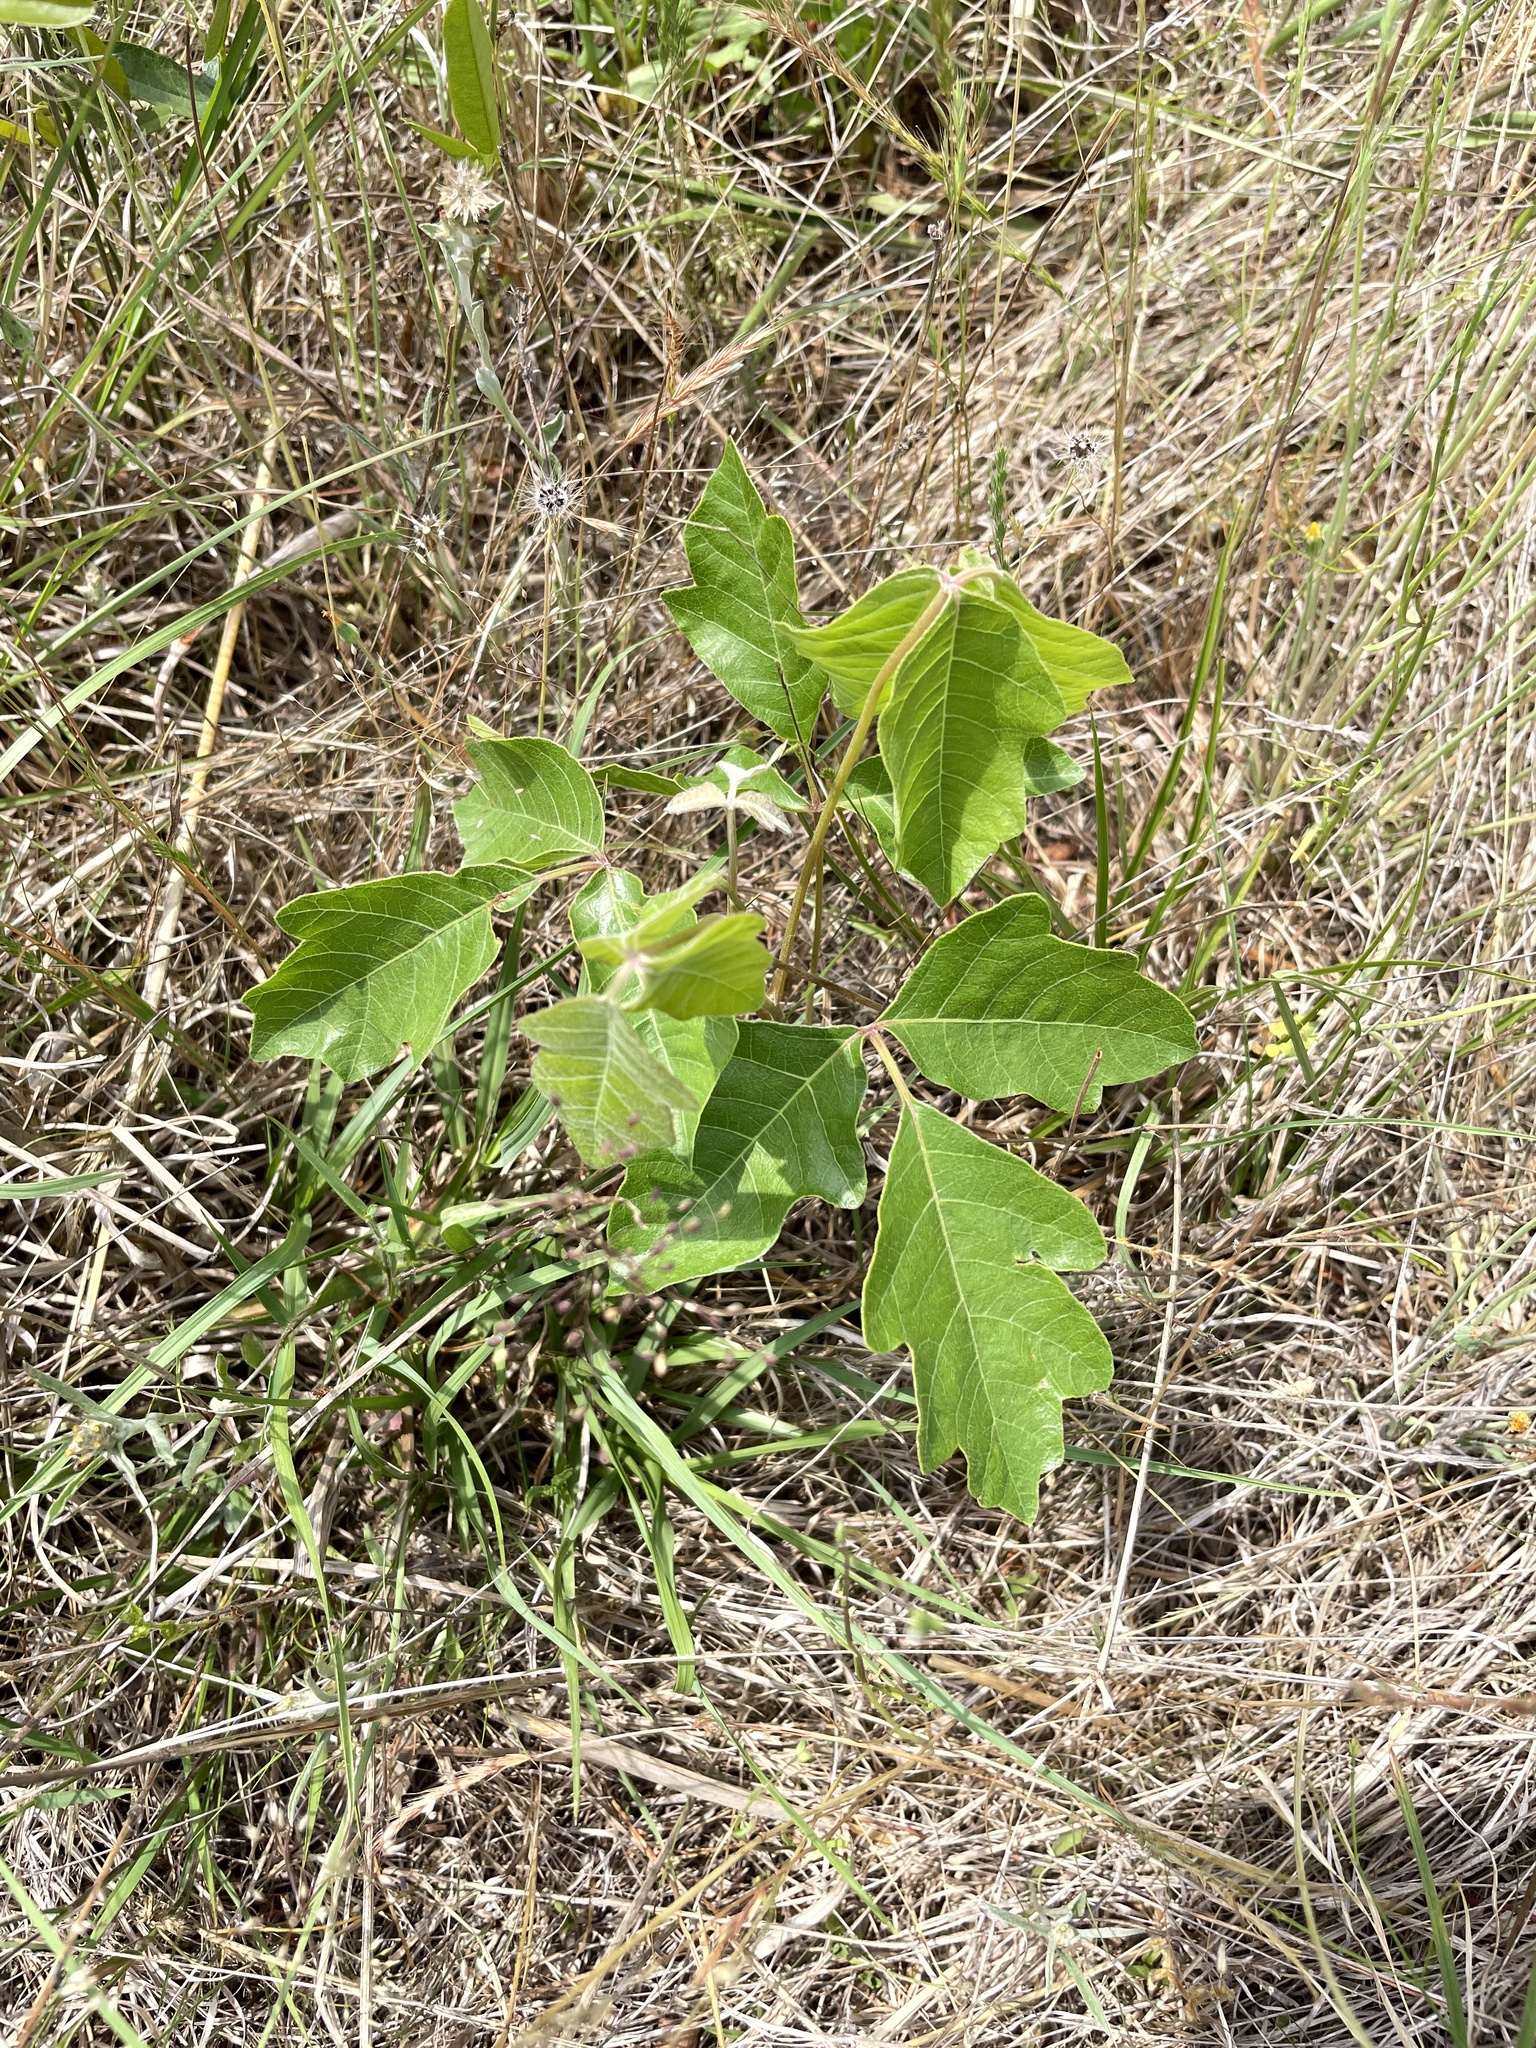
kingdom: Plantae
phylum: Tracheophyta
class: Magnoliopsida
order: Sapindales
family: Anacardiaceae
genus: Toxicodendron
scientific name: Toxicodendron pubescens
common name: Eastern poison-oak
